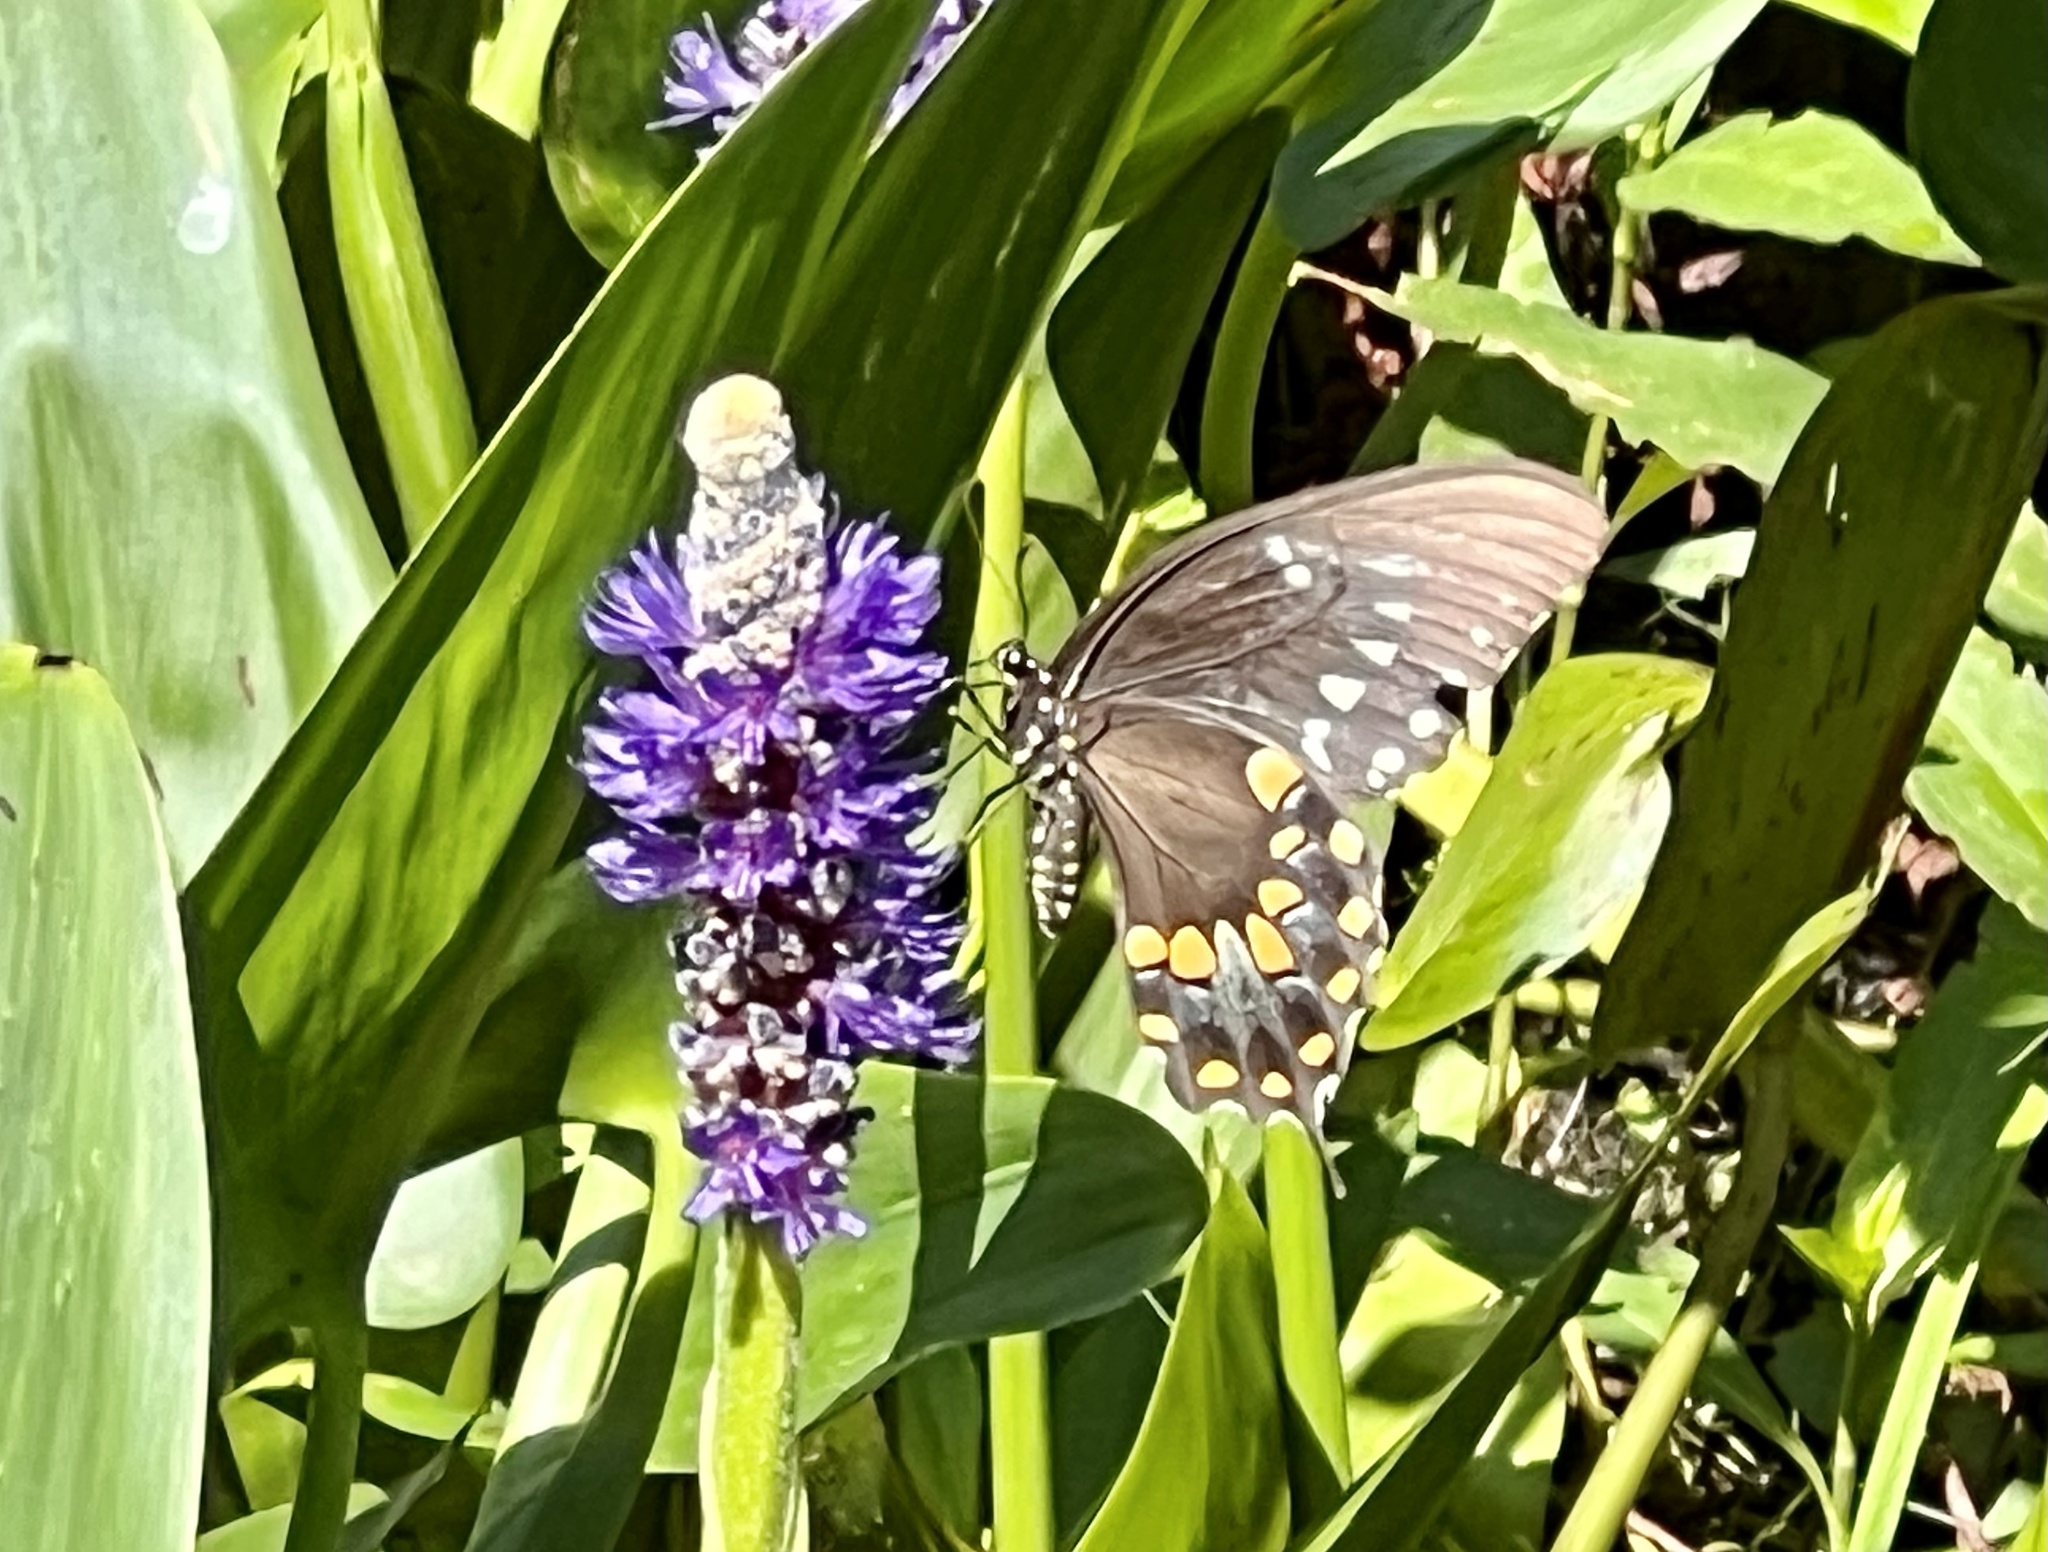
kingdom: Animalia
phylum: Arthropoda
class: Insecta
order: Lepidoptera
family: Papilionidae
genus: Papilio
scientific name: Papilio troilus
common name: Spicebush swallowtail
